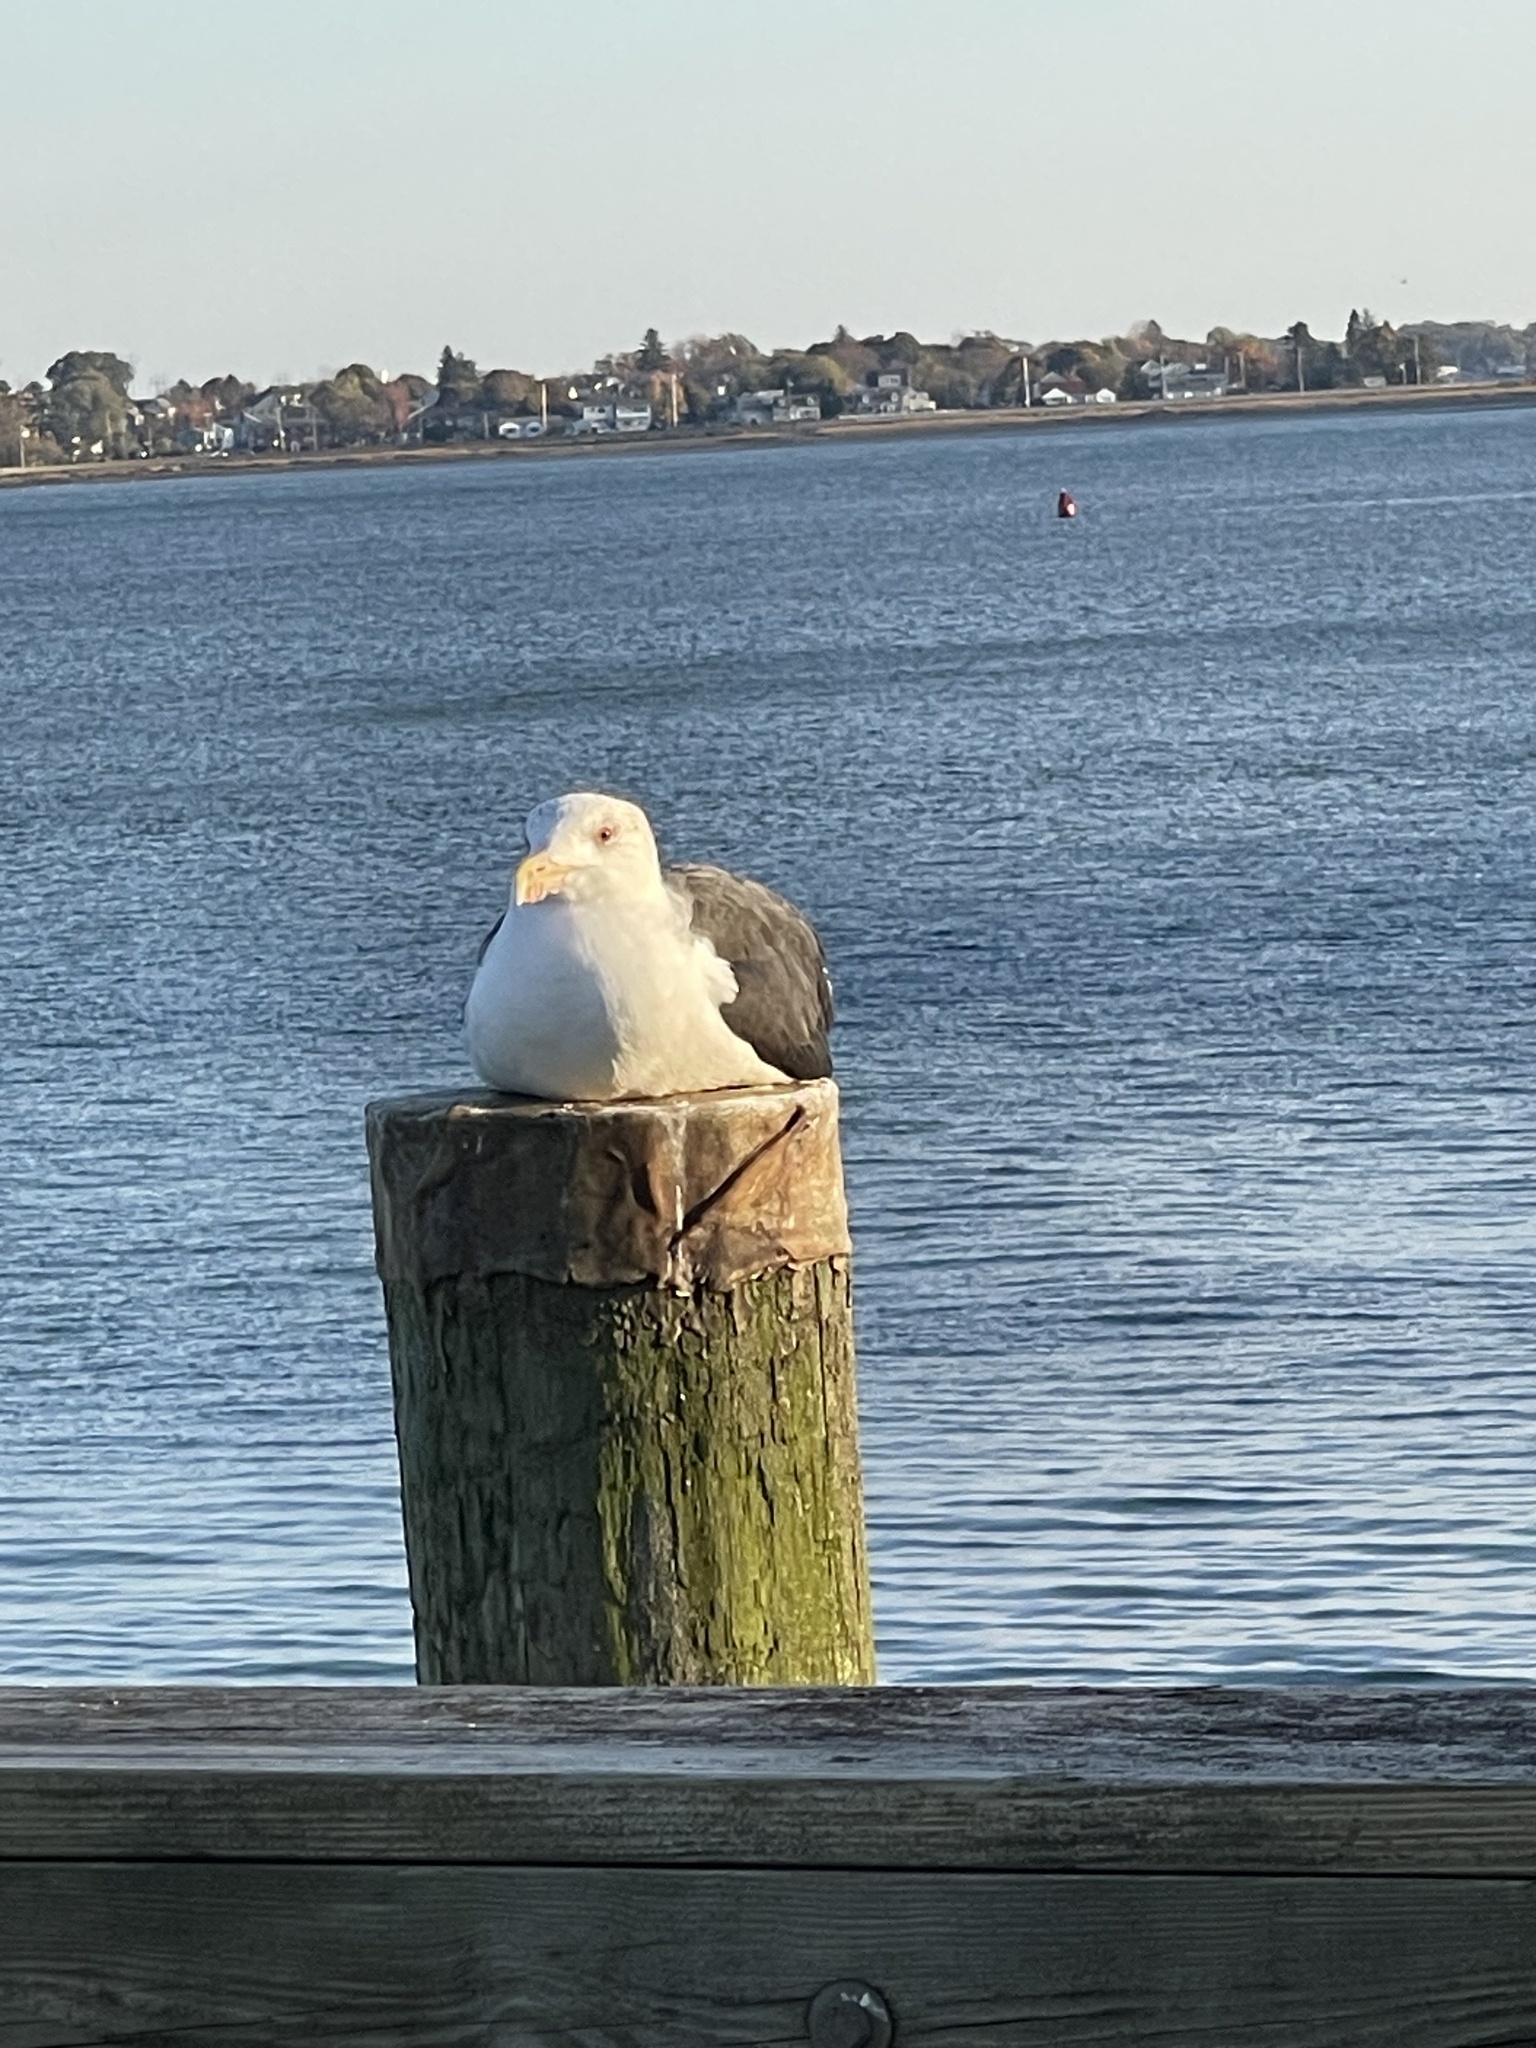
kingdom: Animalia
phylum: Chordata
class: Aves
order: Charadriiformes
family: Laridae
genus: Larus
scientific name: Larus marinus
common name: Great black-backed gull
